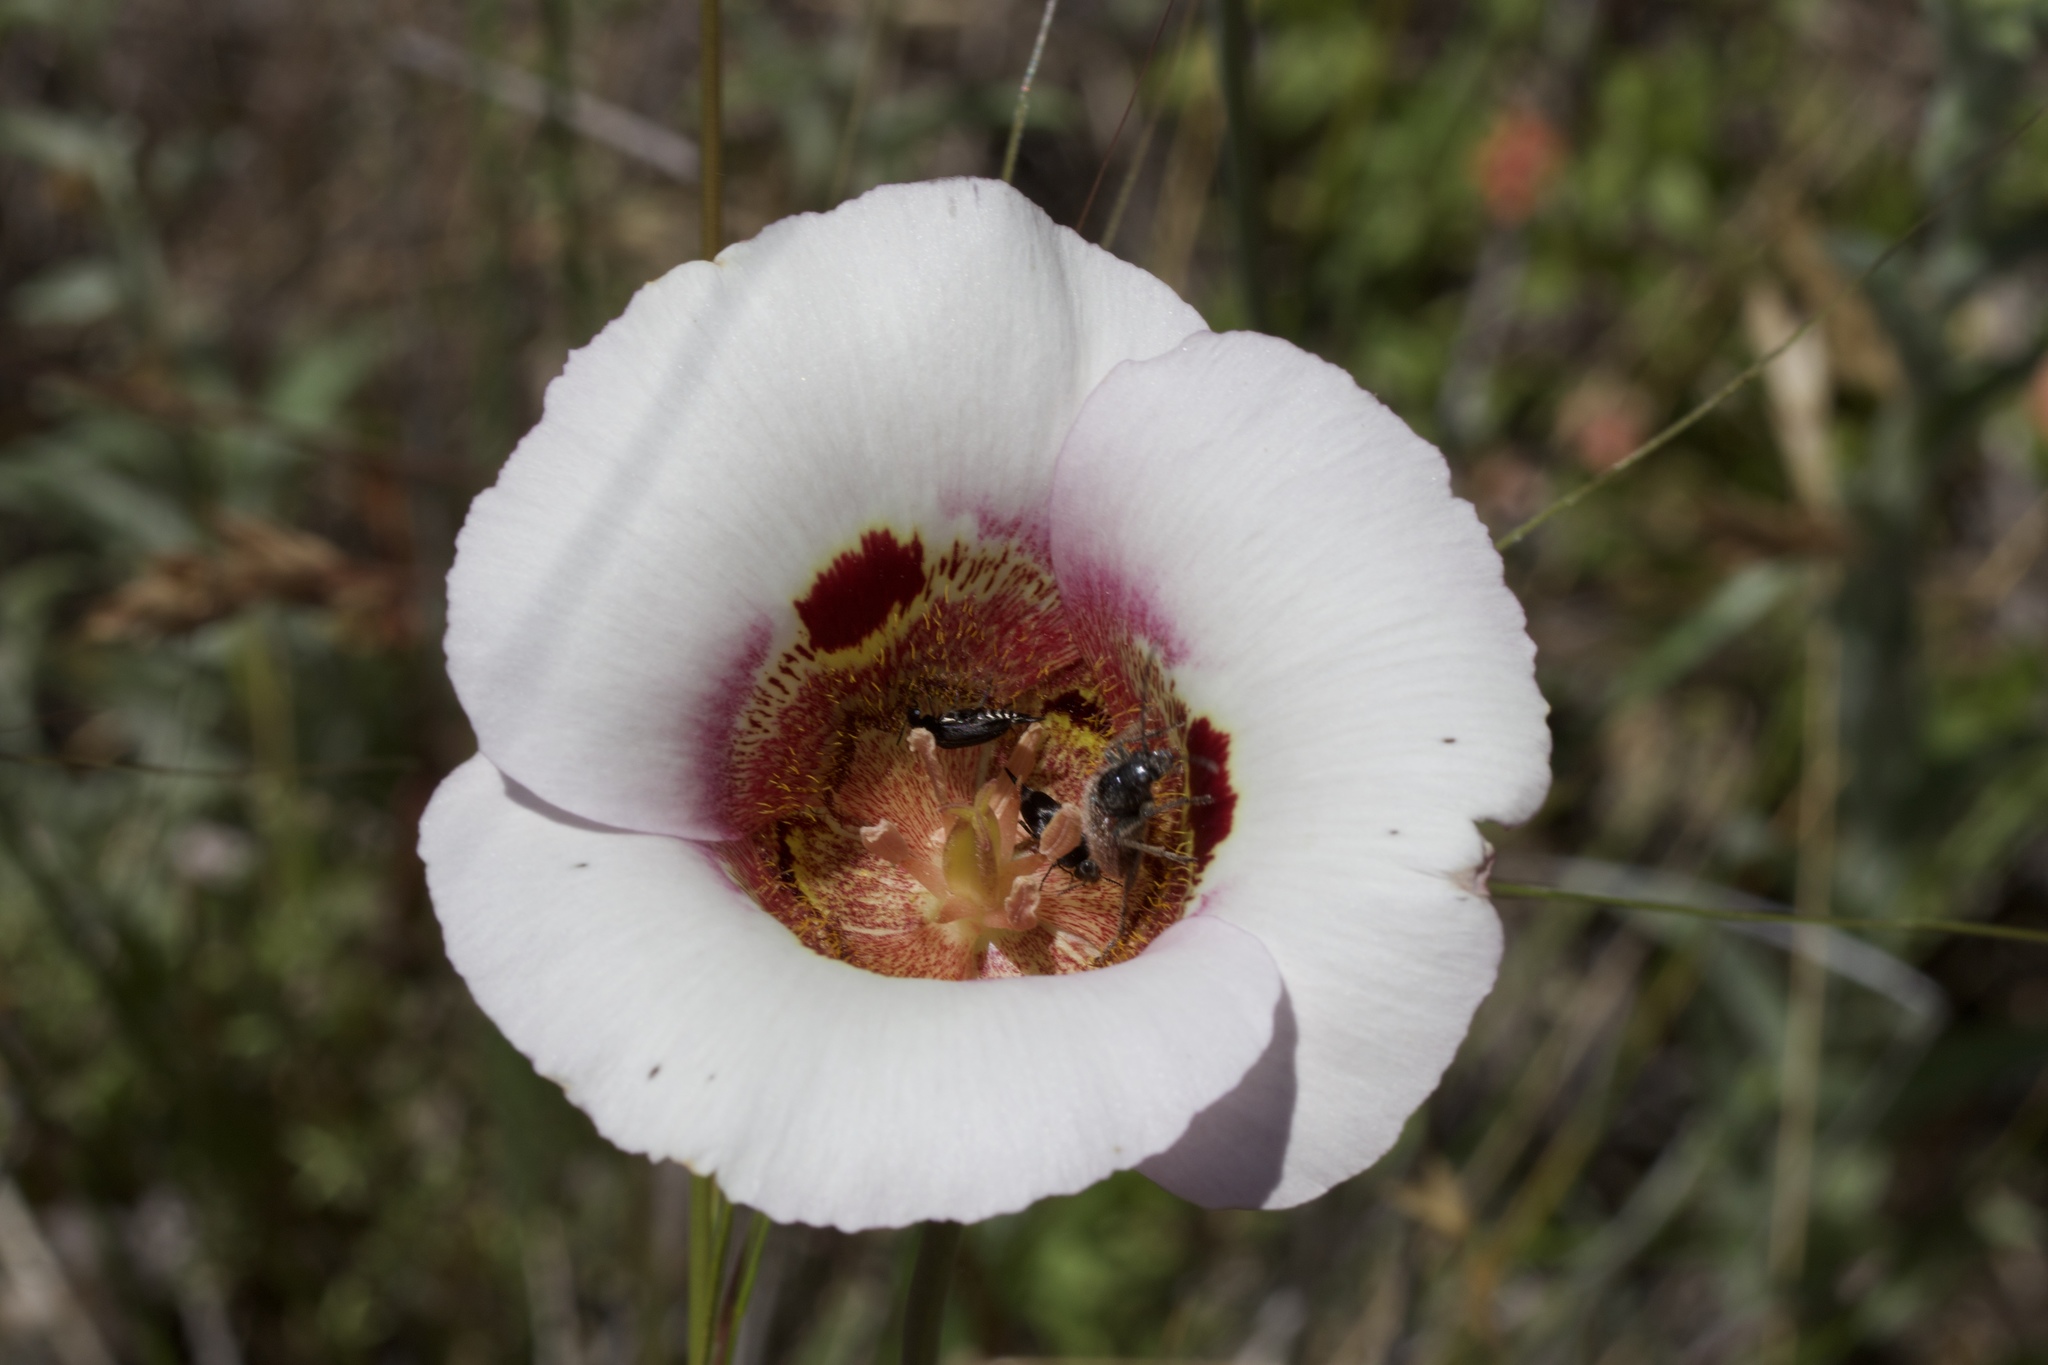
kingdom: Plantae
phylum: Tracheophyta
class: Liliopsida
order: Liliales
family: Liliaceae
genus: Calochortus
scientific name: Calochortus vestae
